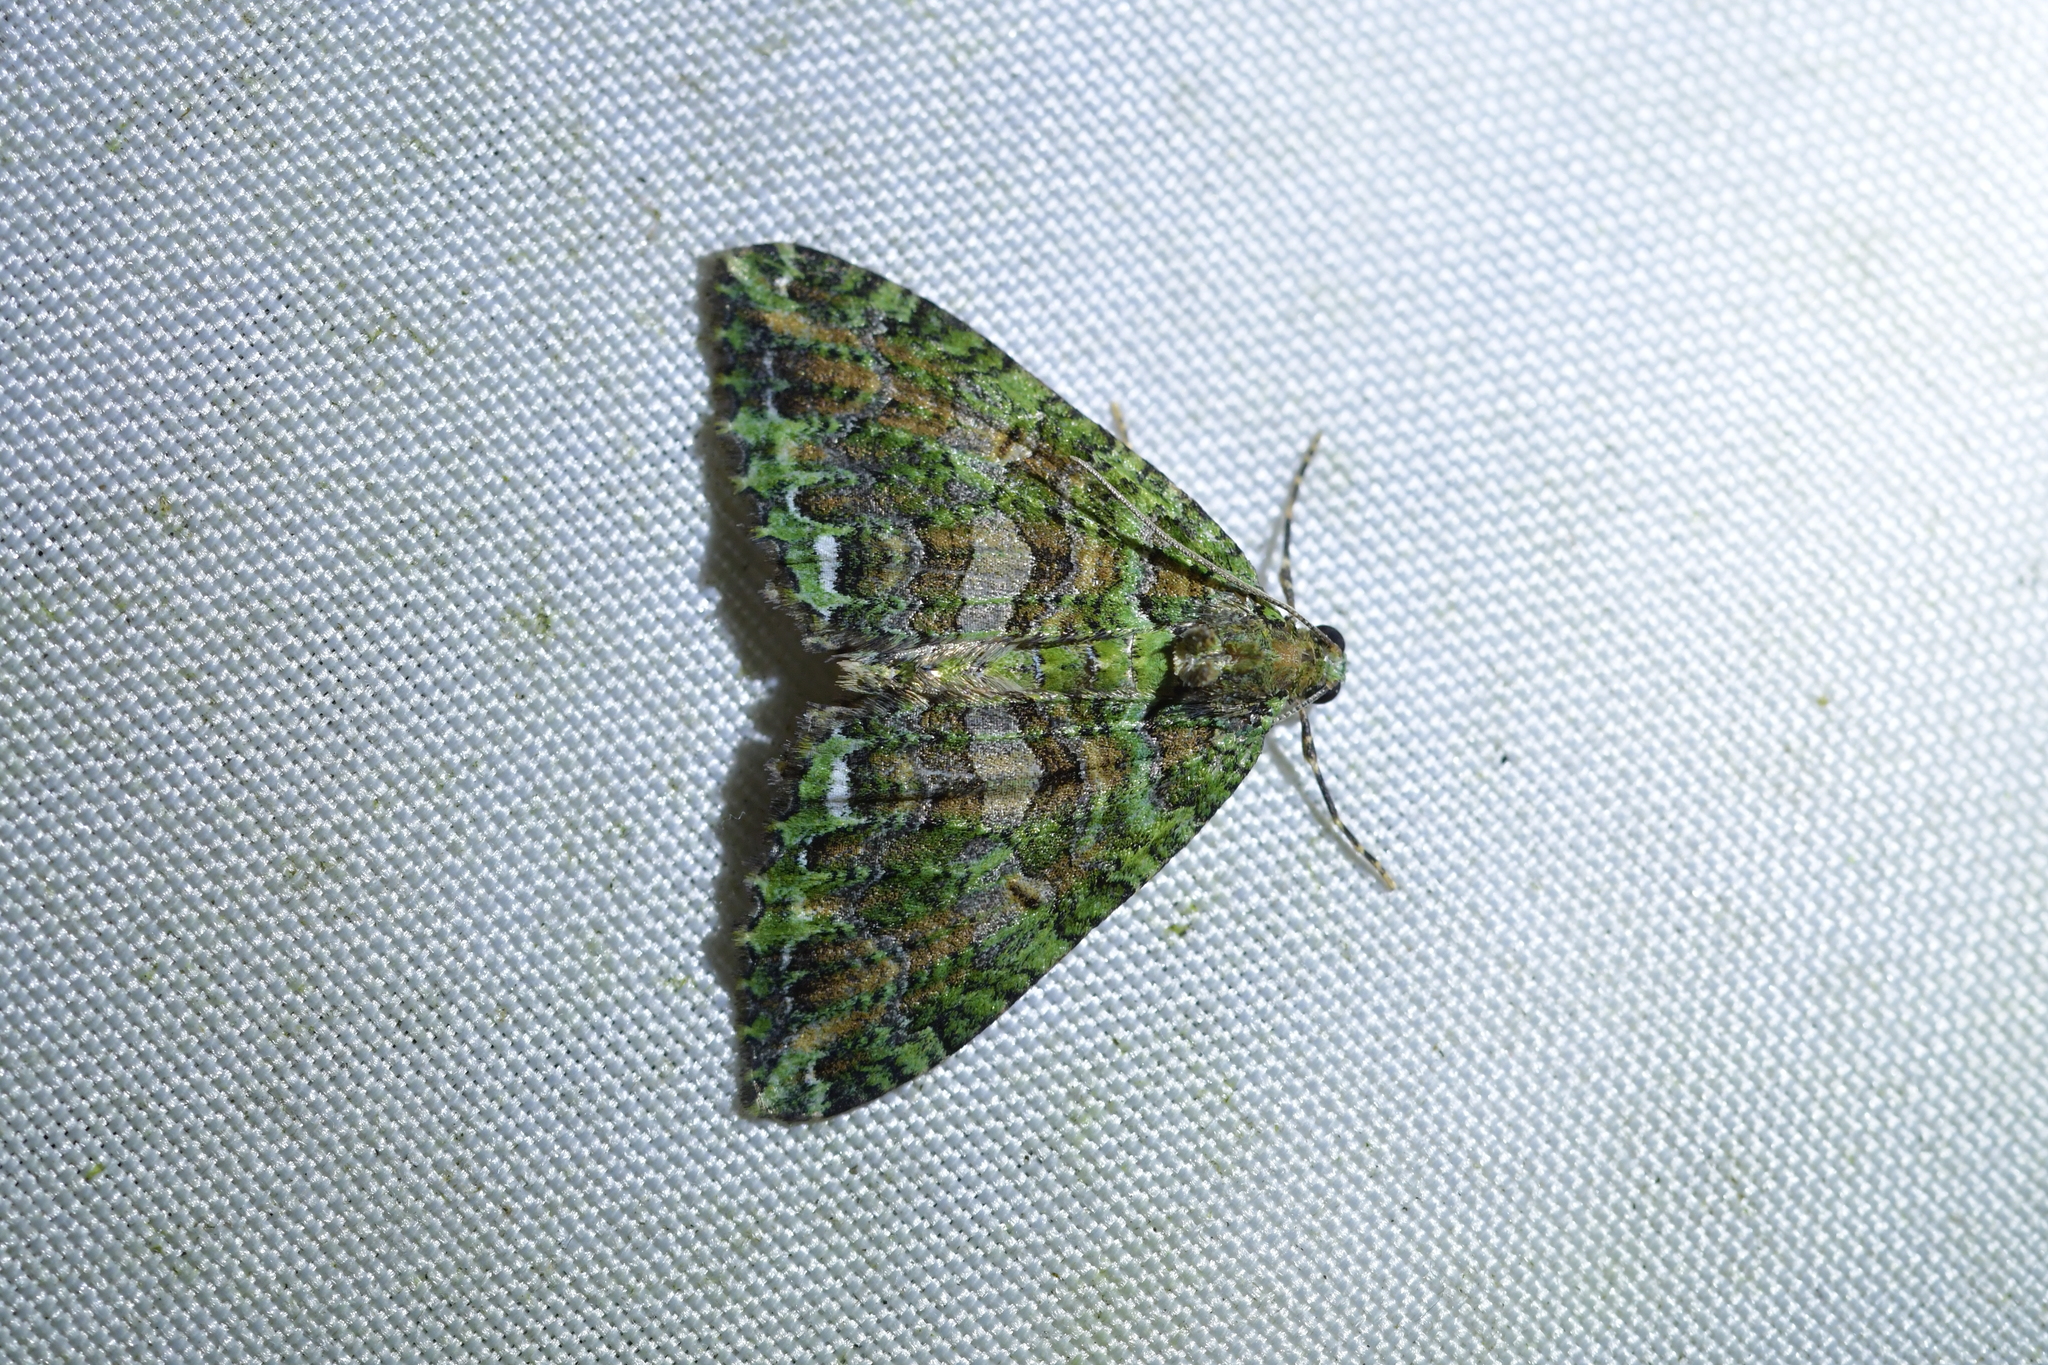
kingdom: Animalia
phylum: Arthropoda
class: Insecta
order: Lepidoptera
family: Geometridae
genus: Austrocidaria
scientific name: Austrocidaria similata
